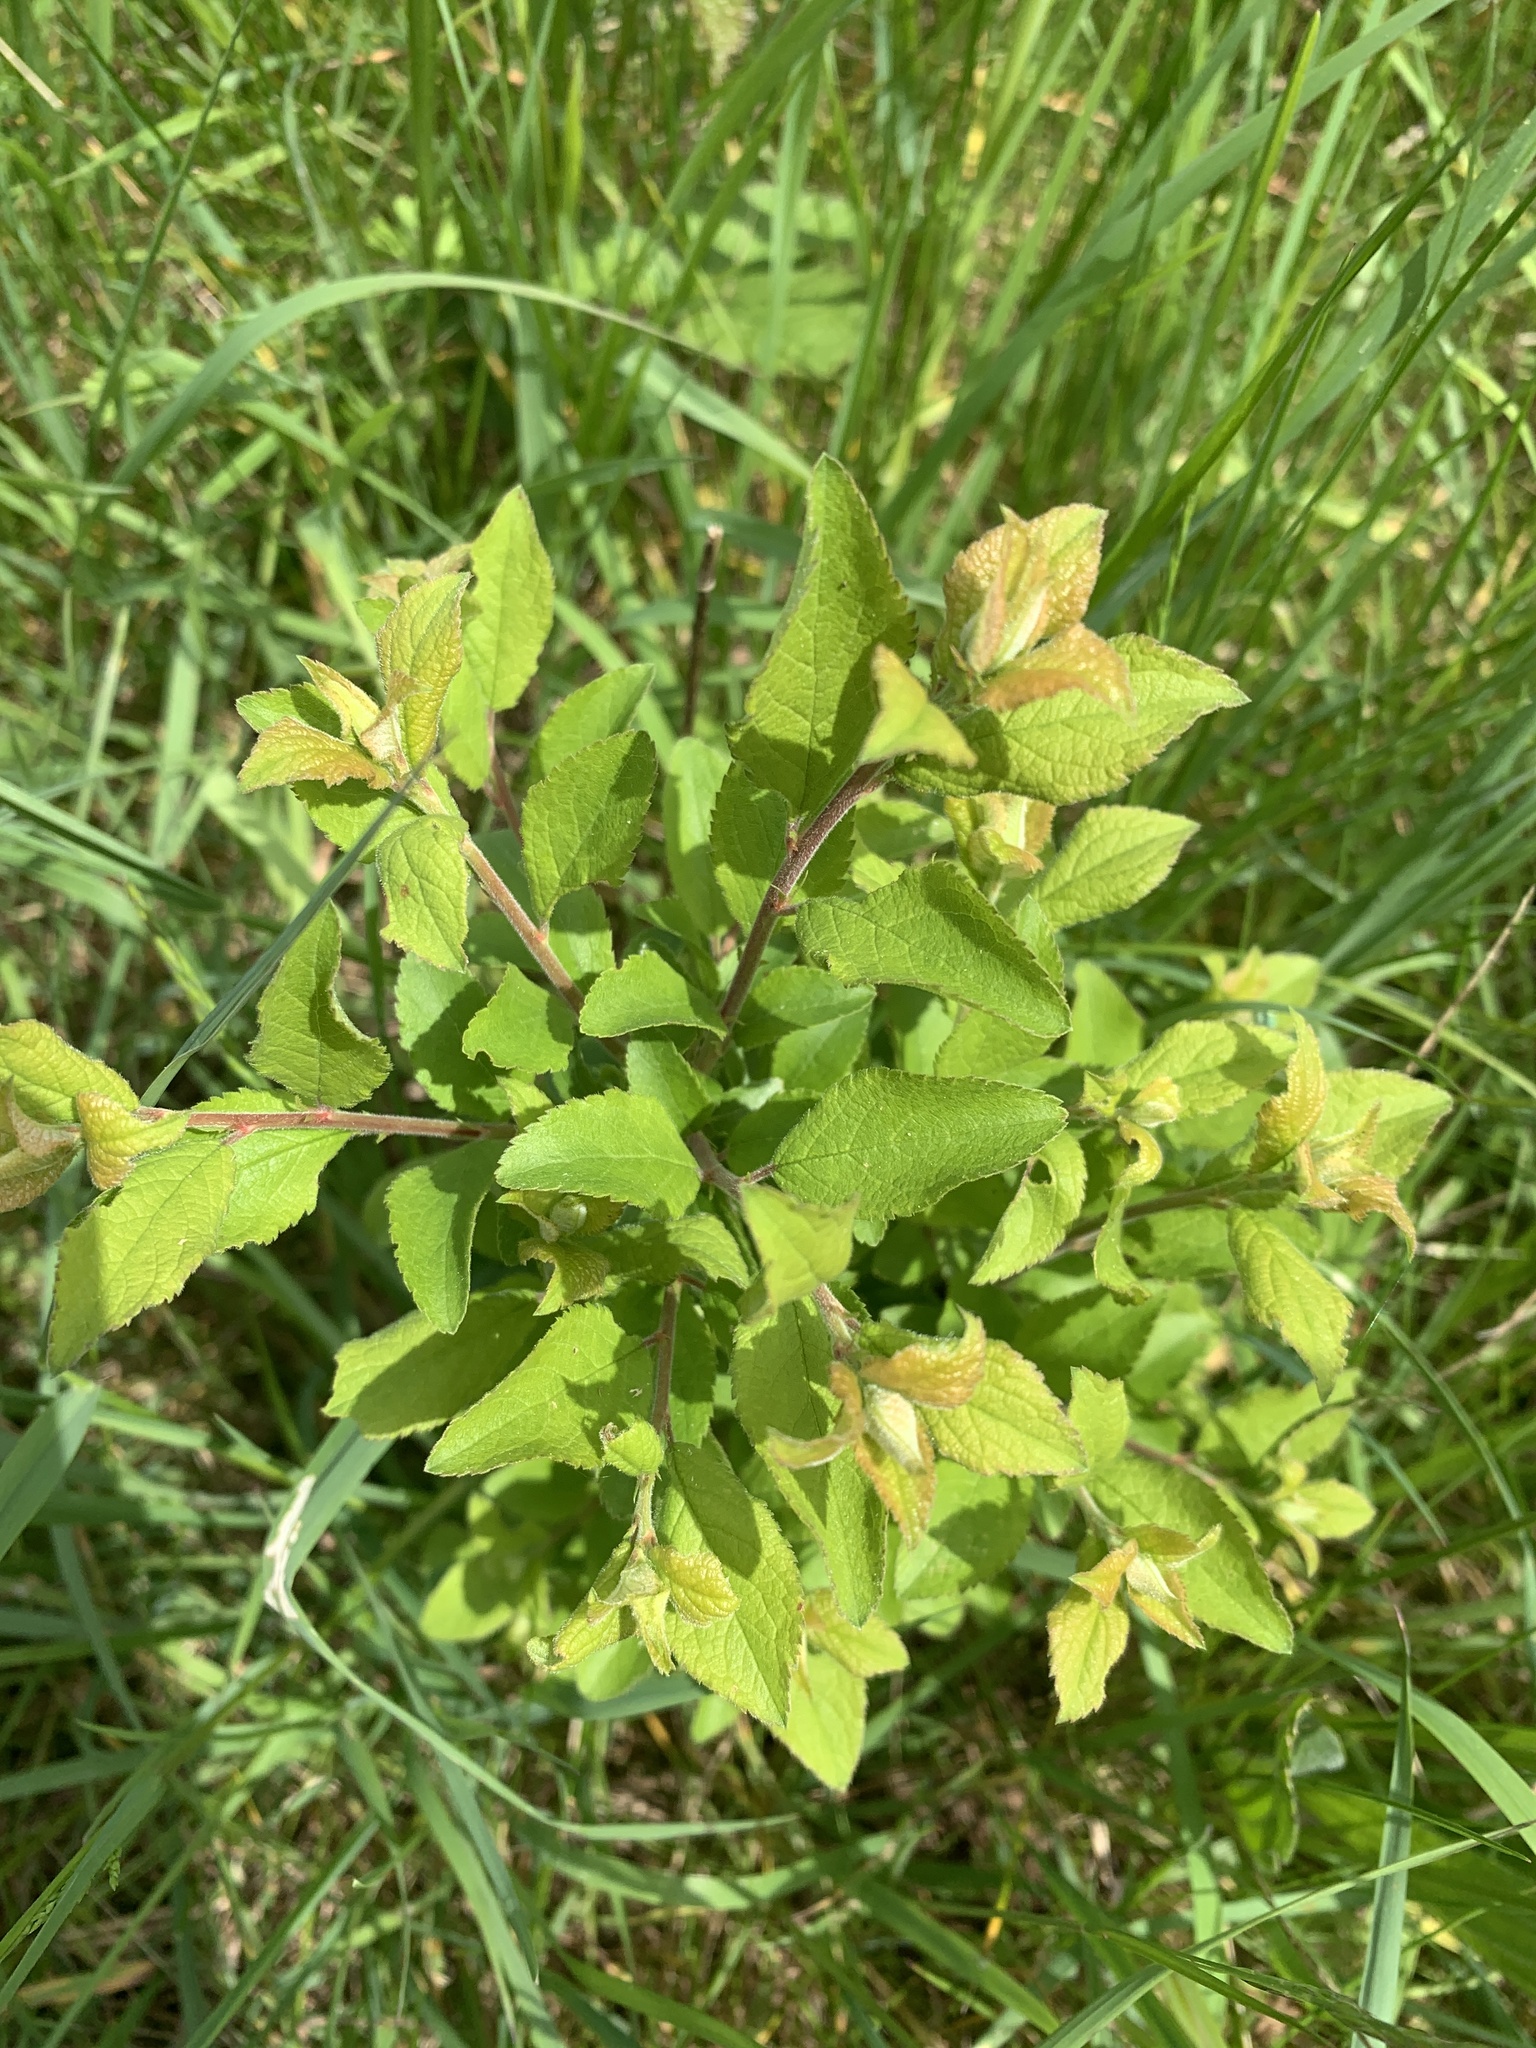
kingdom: Plantae
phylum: Tracheophyta
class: Magnoliopsida
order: Rosales
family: Rosaceae
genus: Prunus
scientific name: Prunus spinosa
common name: Blackthorn
